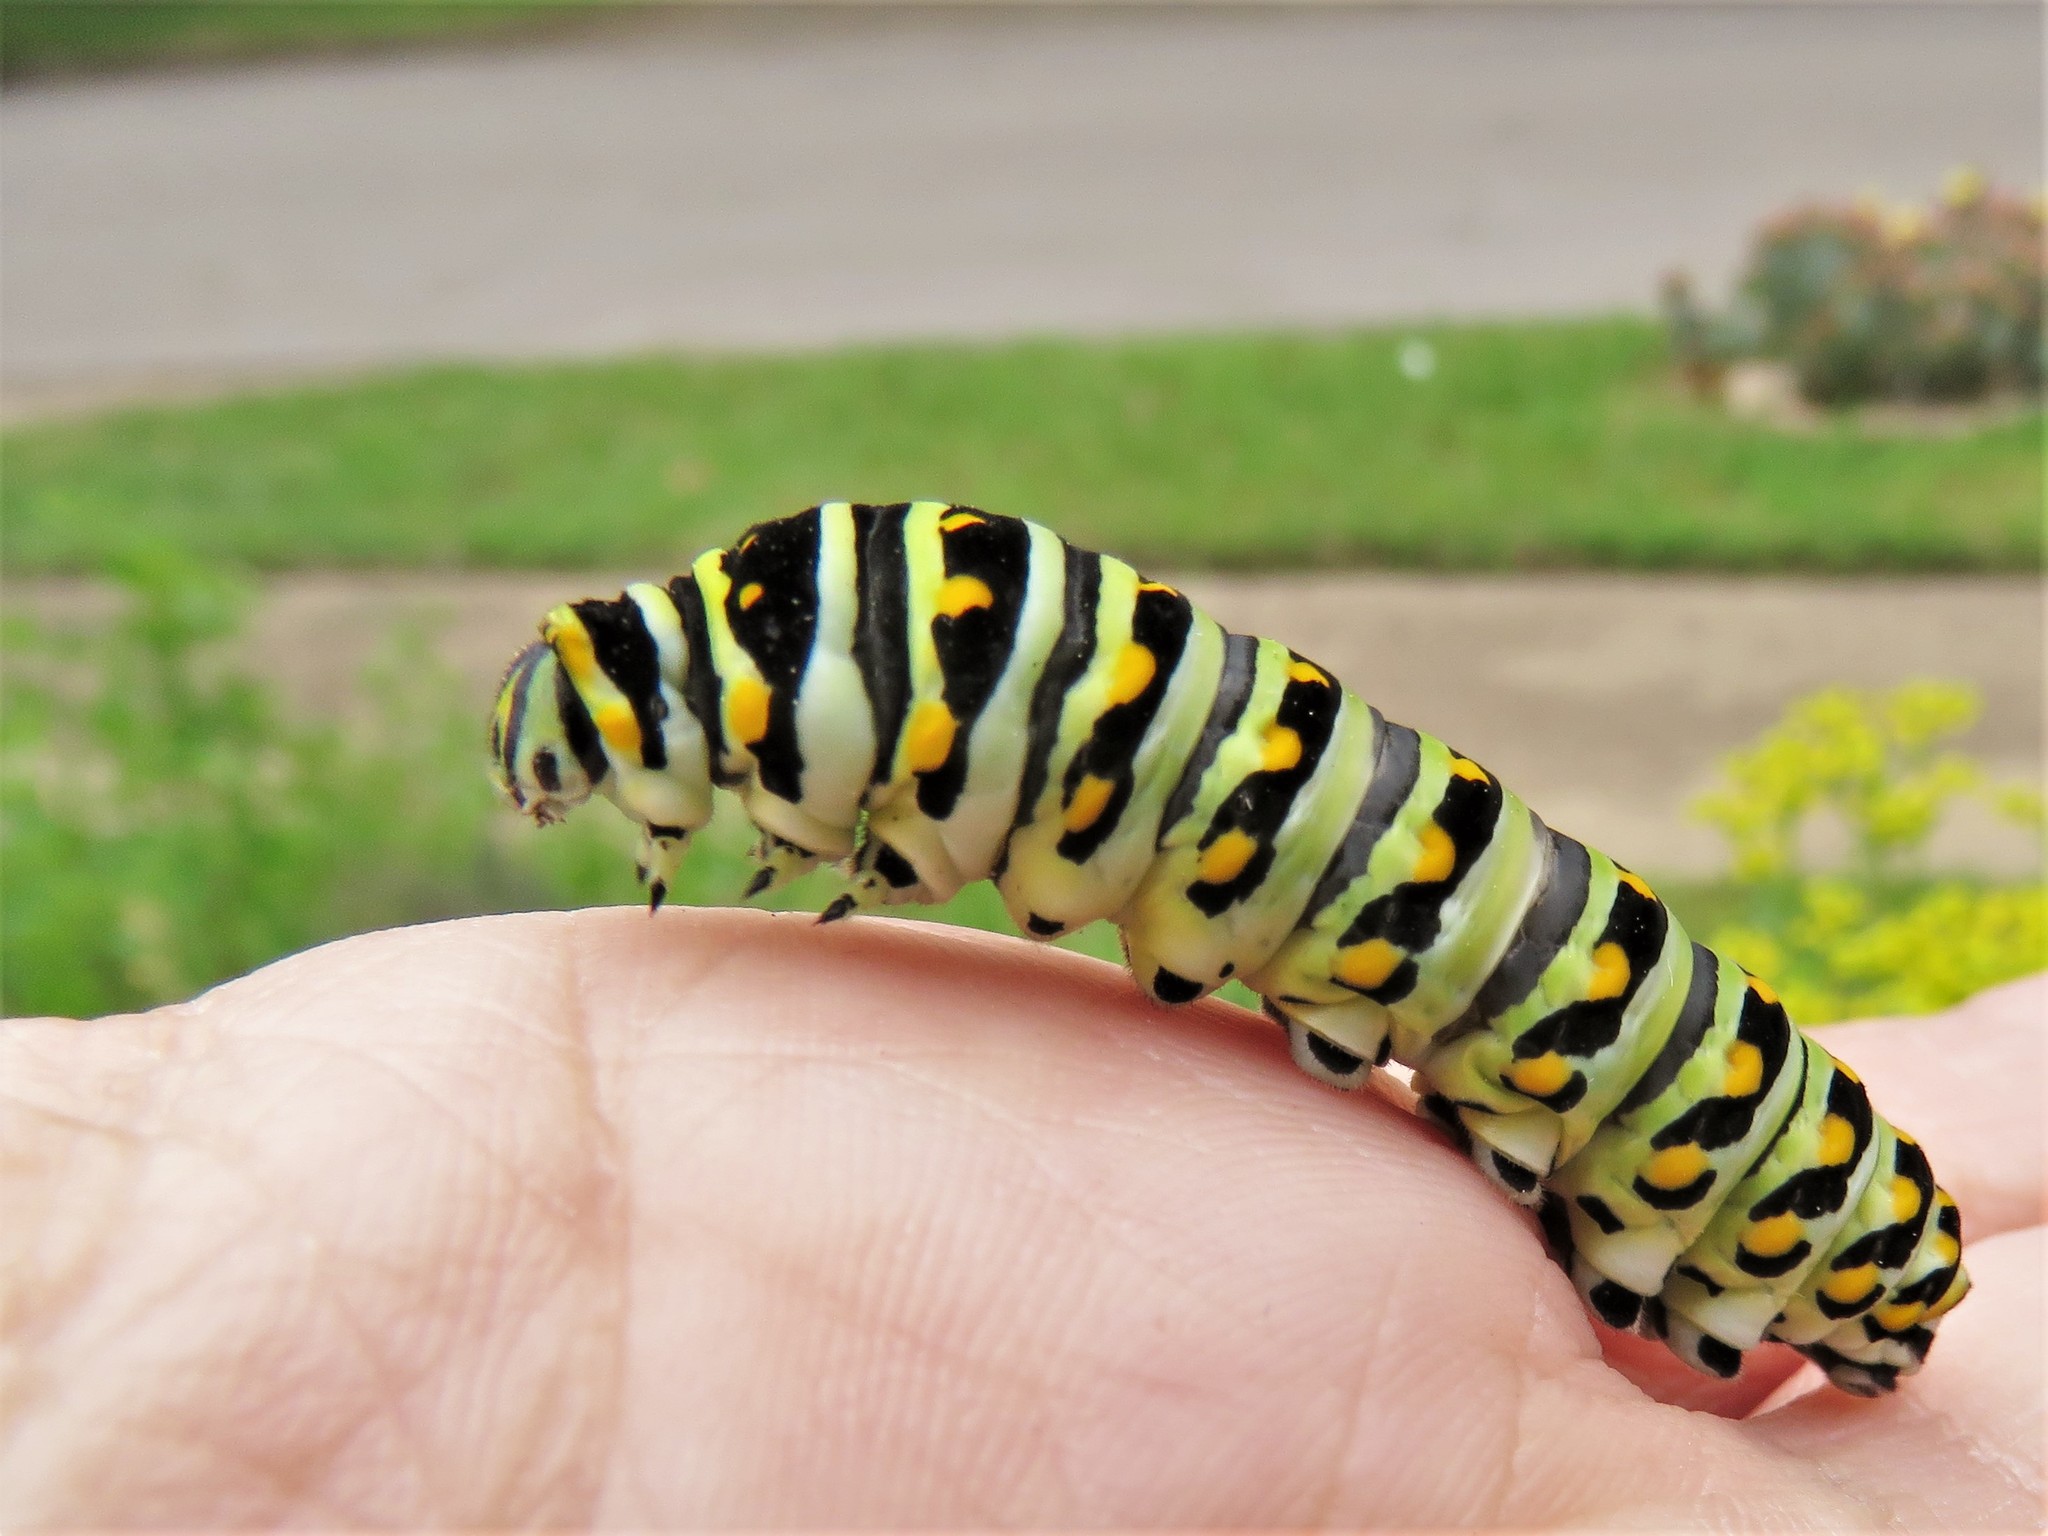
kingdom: Animalia
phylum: Arthropoda
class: Insecta
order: Lepidoptera
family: Papilionidae
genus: Papilio
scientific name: Papilio polyxenes
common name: Black swallowtail
